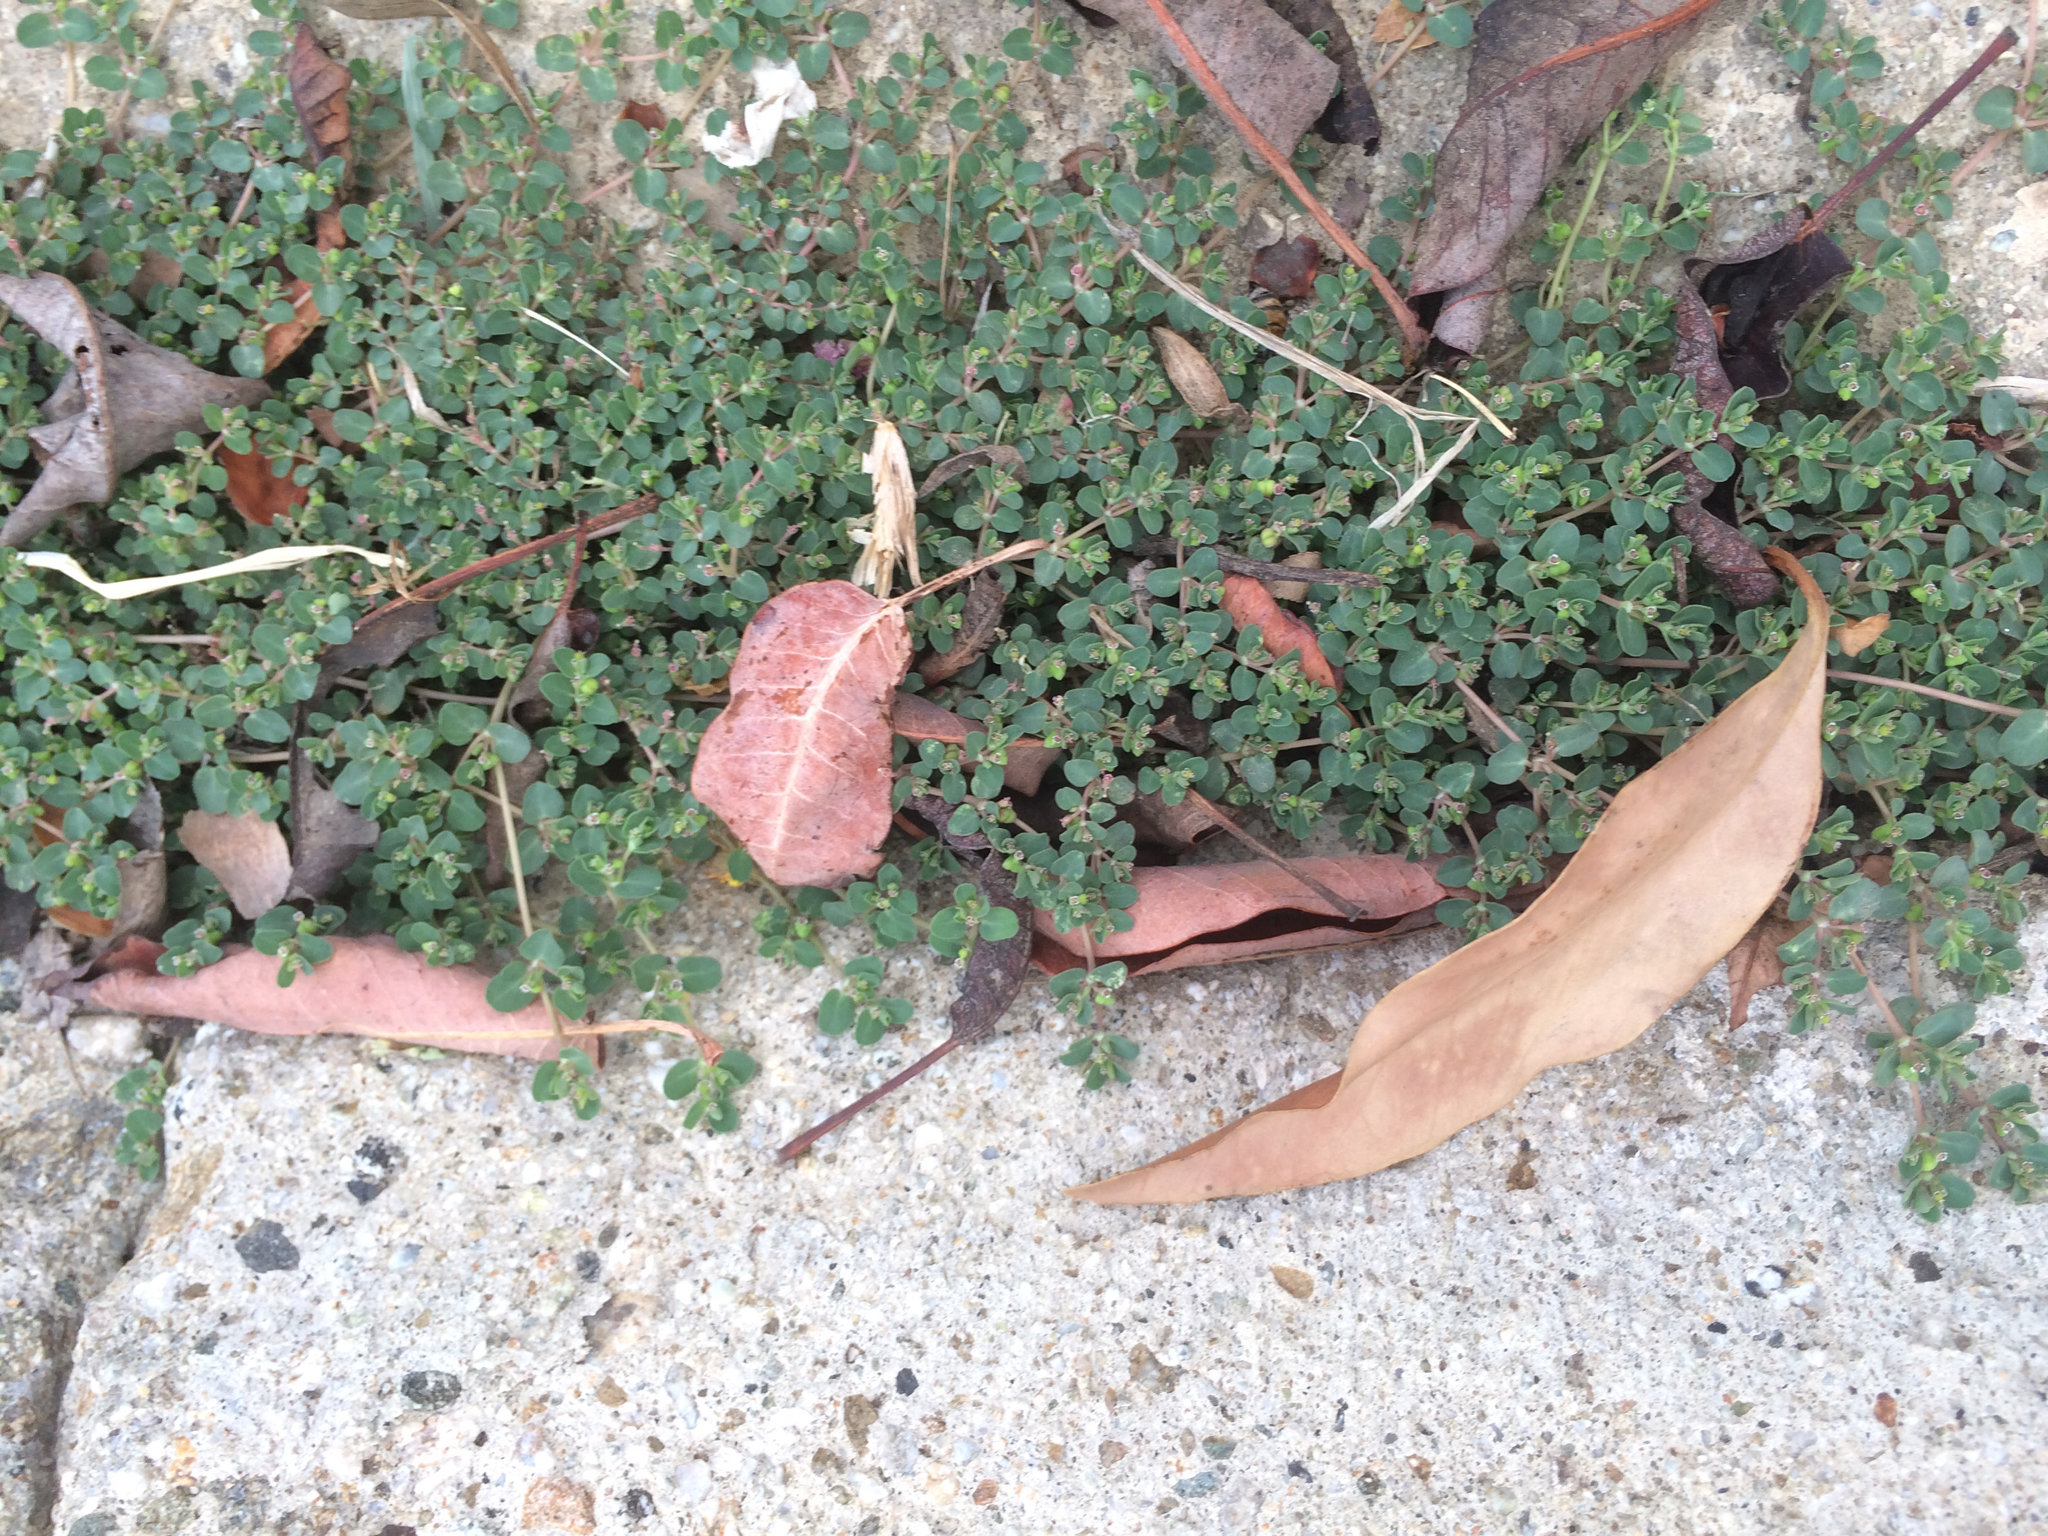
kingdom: Plantae
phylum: Tracheophyta
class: Magnoliopsida
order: Malpighiales
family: Euphorbiaceae
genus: Euphorbia
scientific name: Euphorbia serpens
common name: Matted sandmat
